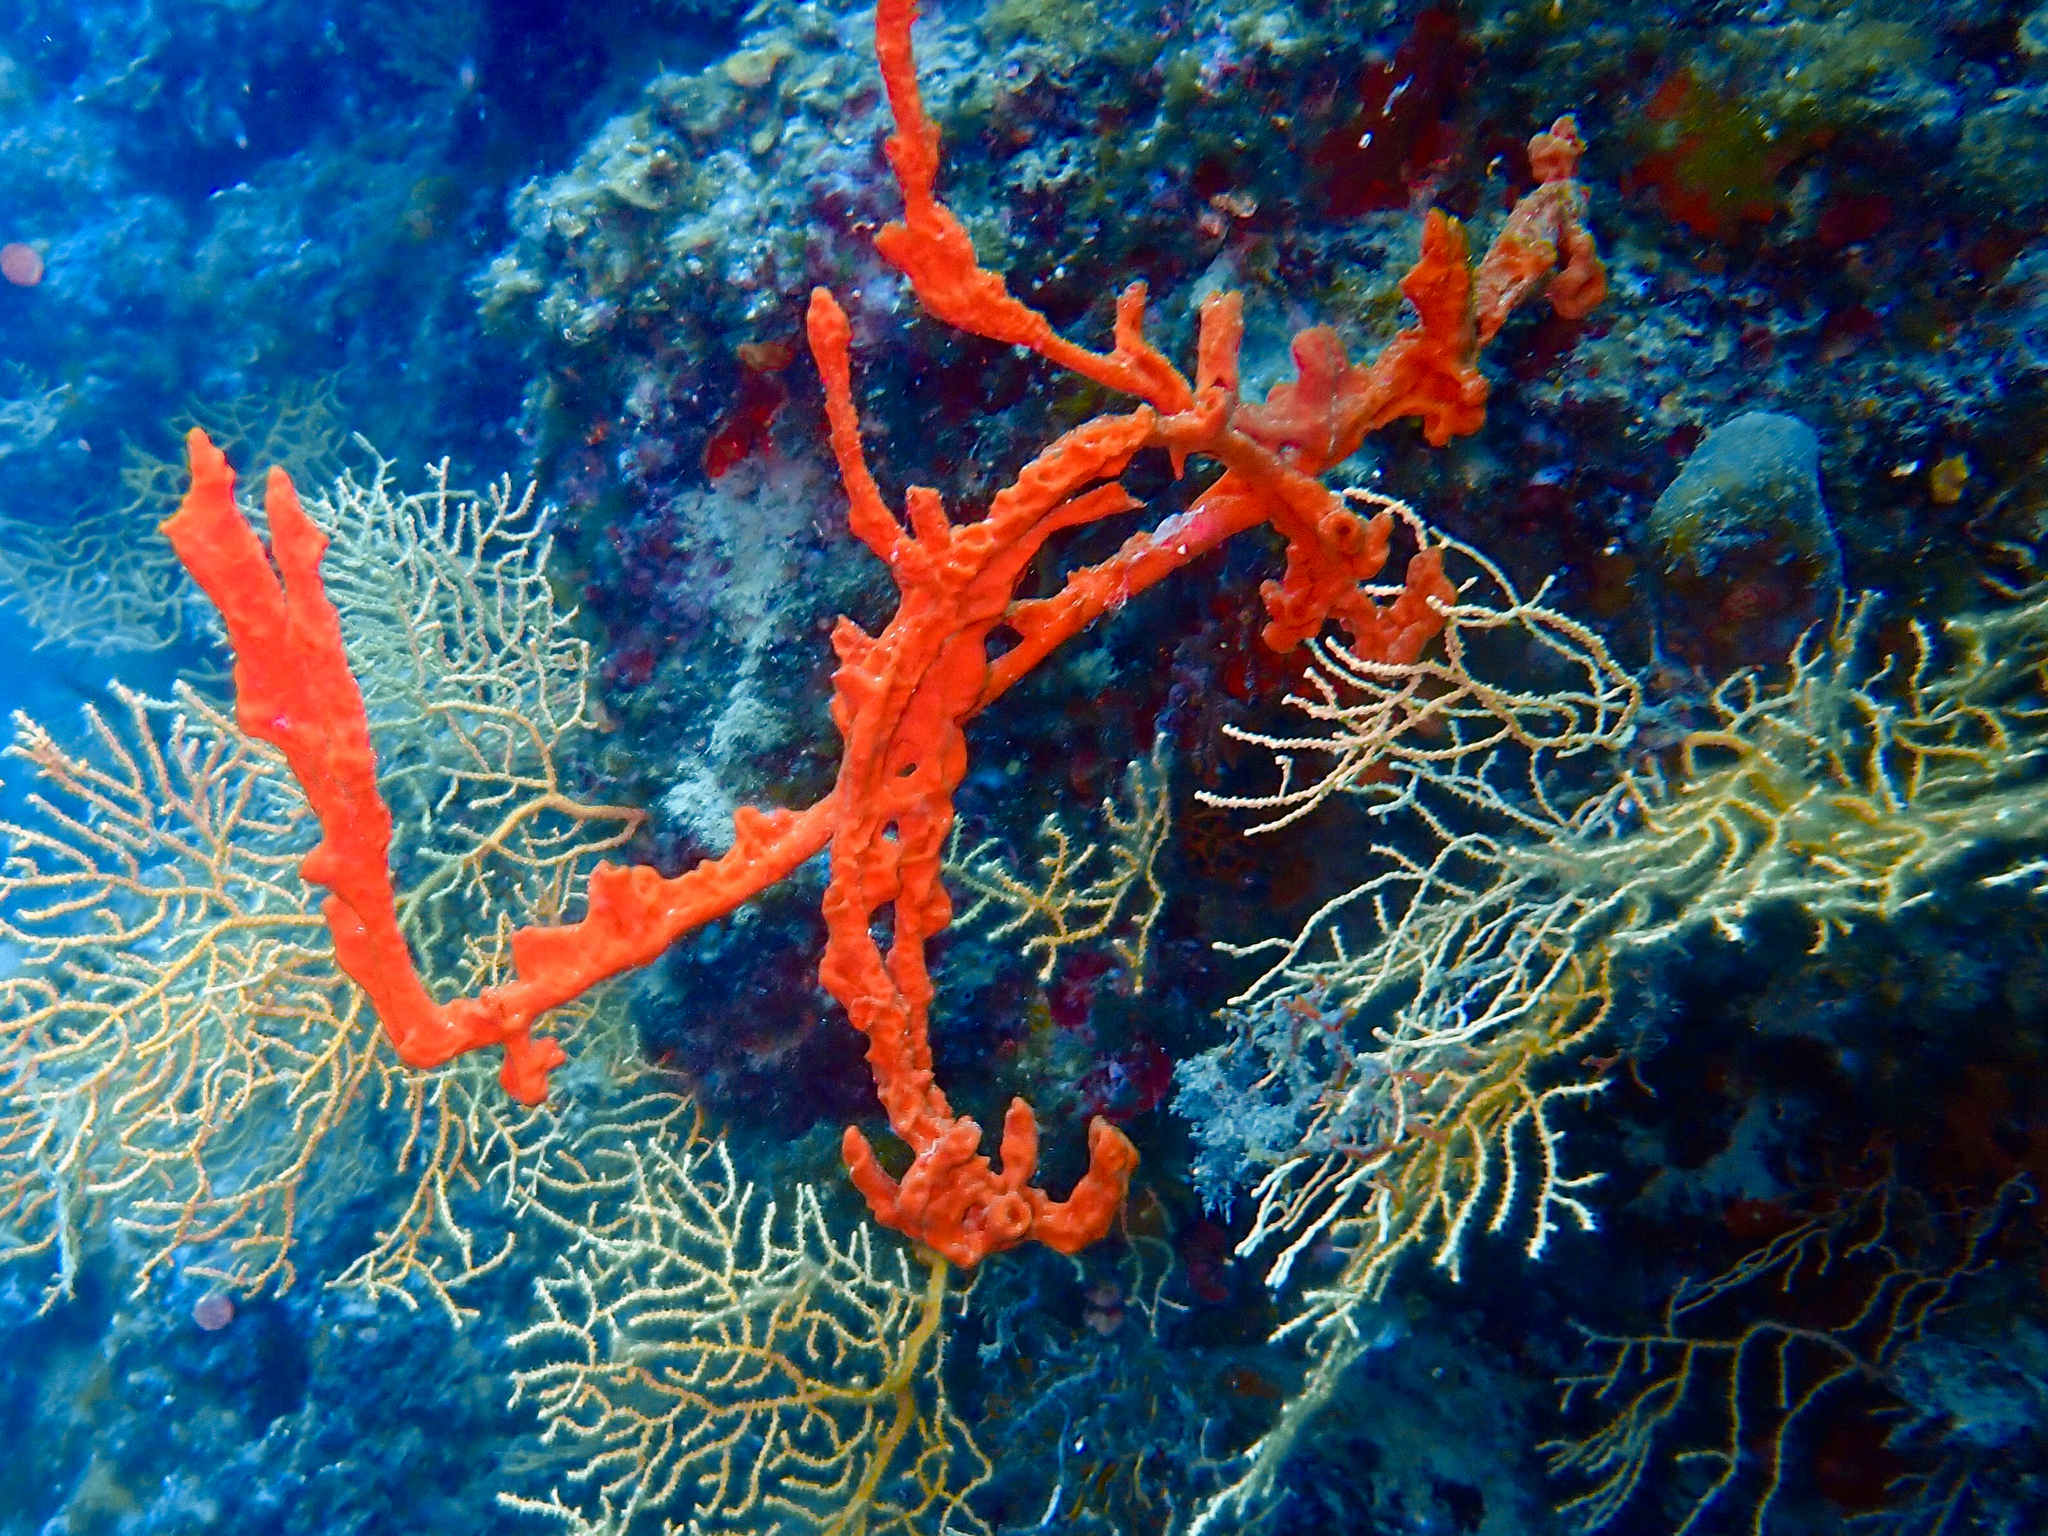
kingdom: Animalia
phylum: Porifera
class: Demospongiae
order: Axinellida
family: Axinellidae
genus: Axinella
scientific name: Axinella cannabina
